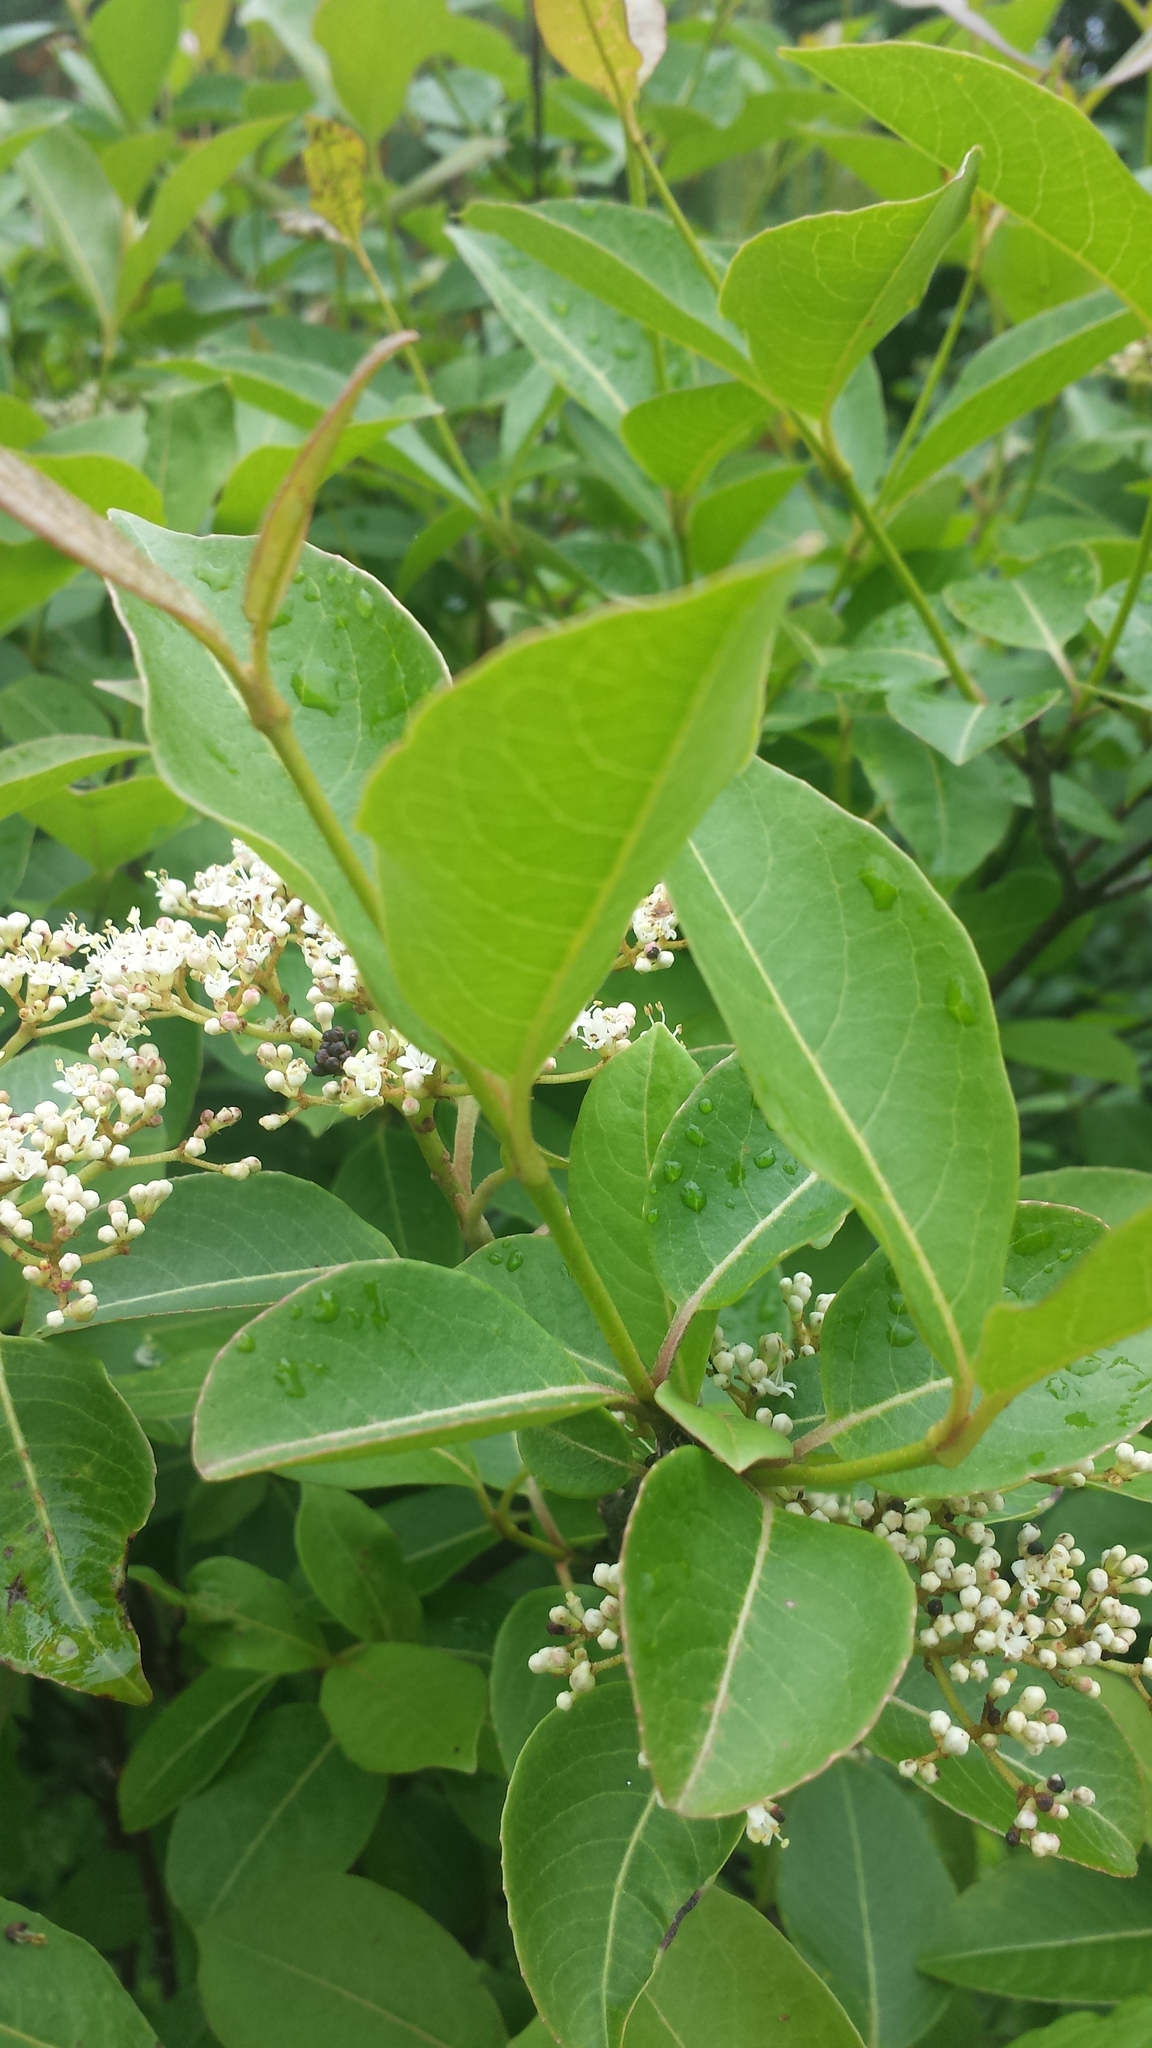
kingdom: Plantae
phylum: Tracheophyta
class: Magnoliopsida
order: Dipsacales
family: Viburnaceae
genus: Viburnum
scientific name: Viburnum cassinoides
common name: Swamp haw
